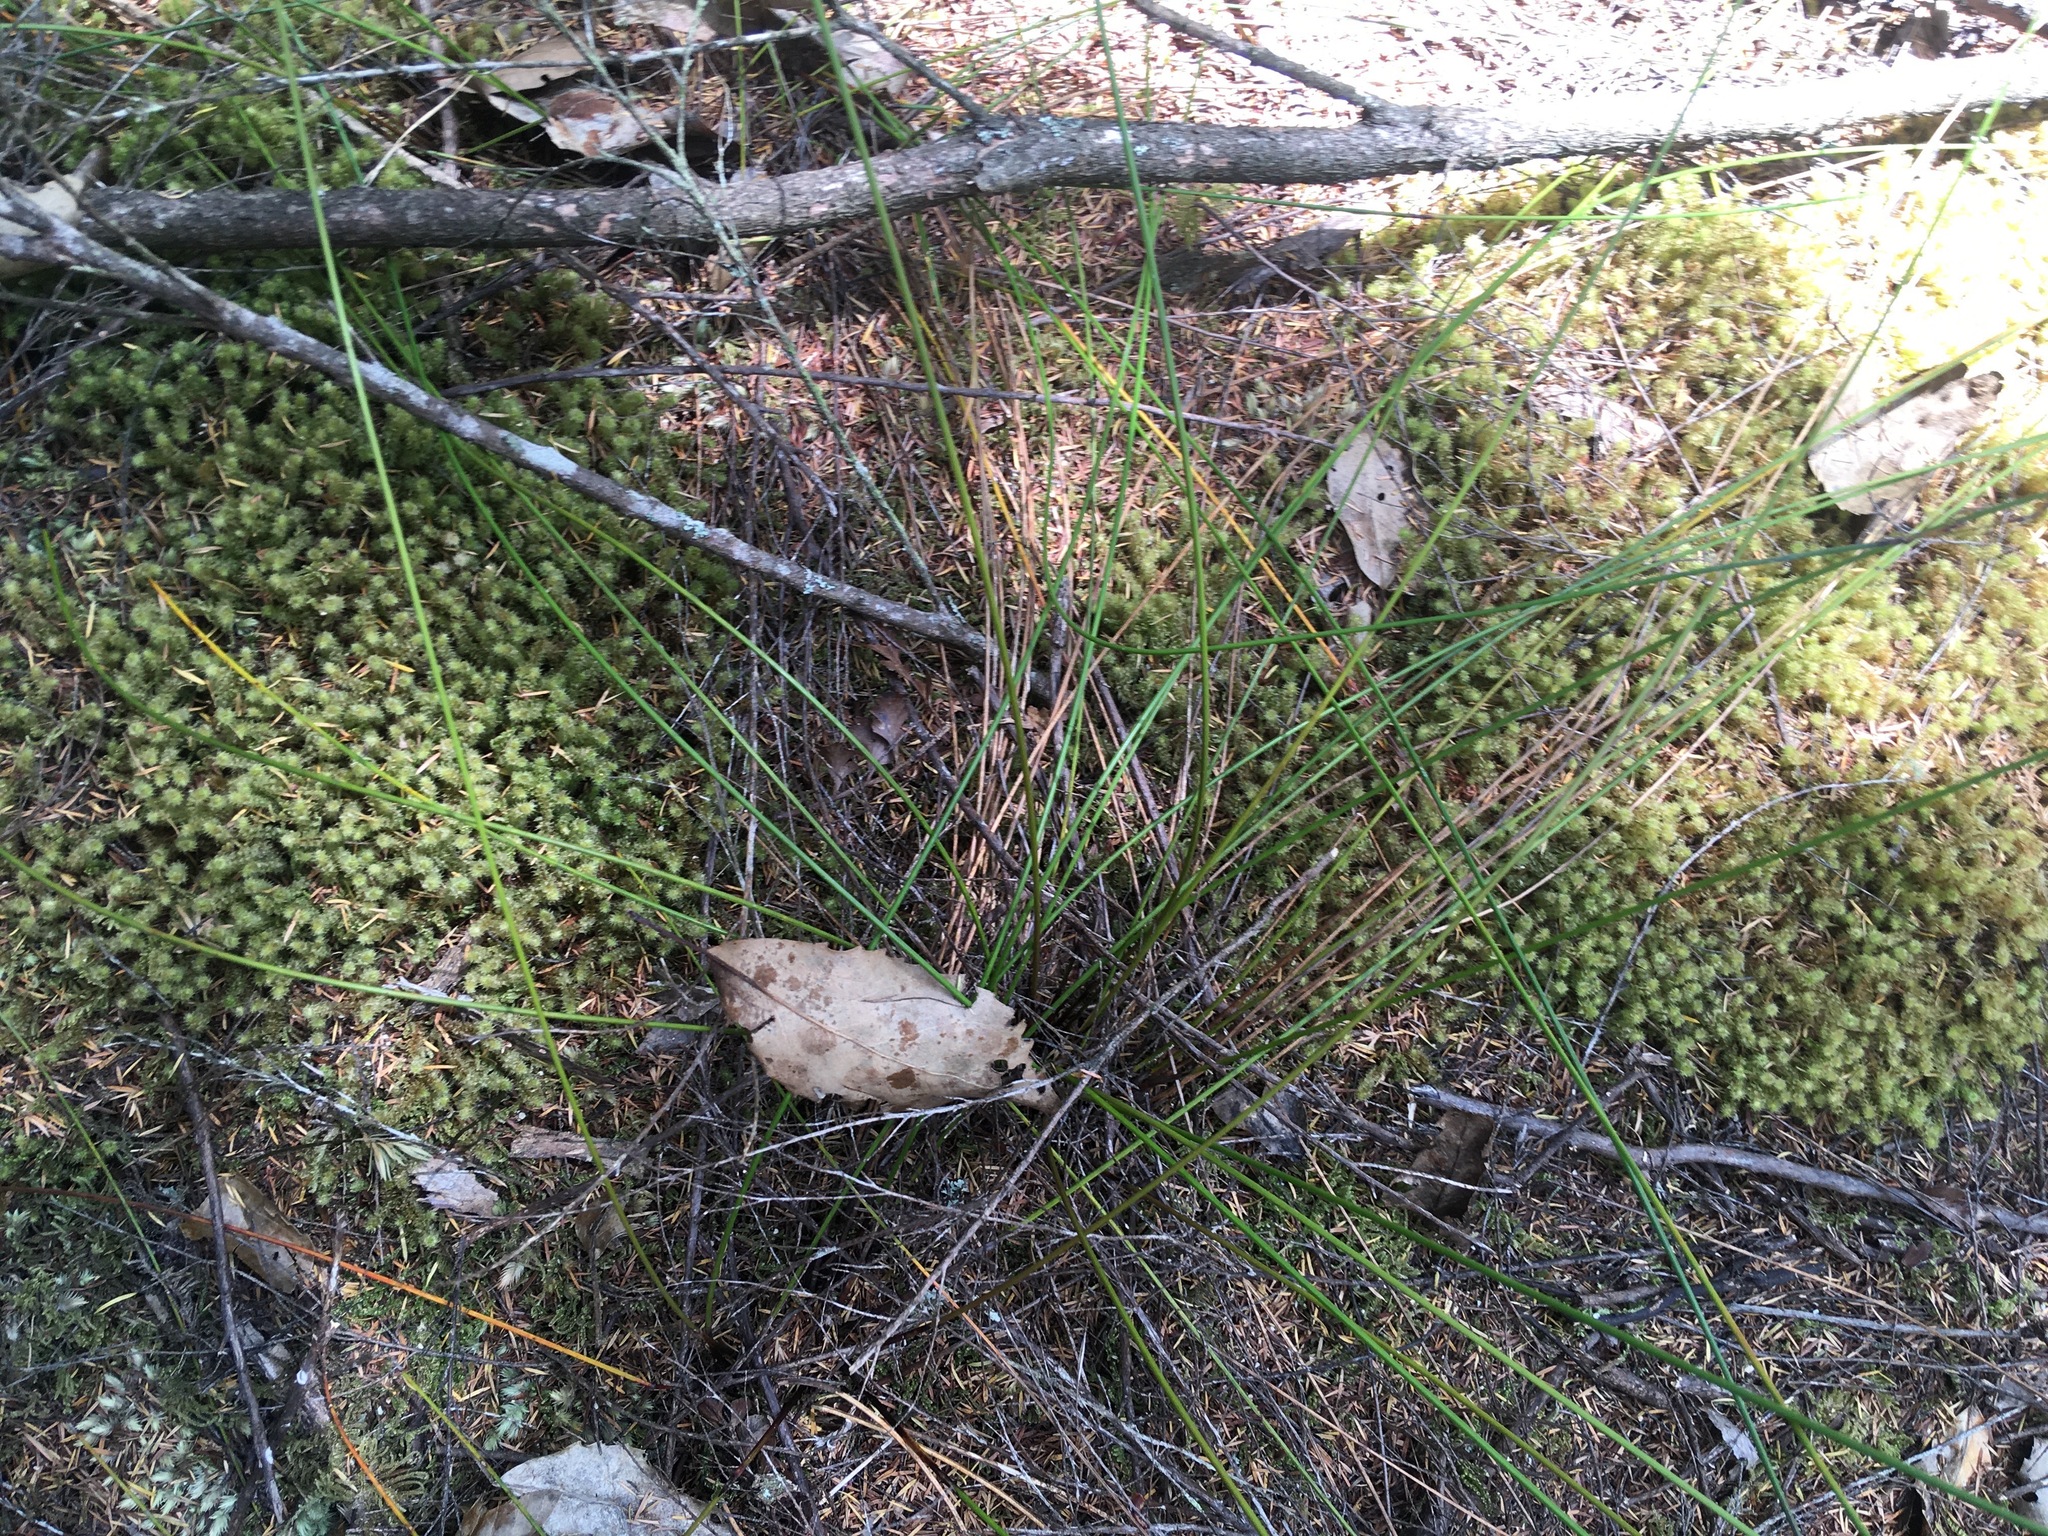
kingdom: Plantae
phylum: Tracheophyta
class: Liliopsida
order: Poales
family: Cyperaceae
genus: Schoenus
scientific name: Schoenus tendo
